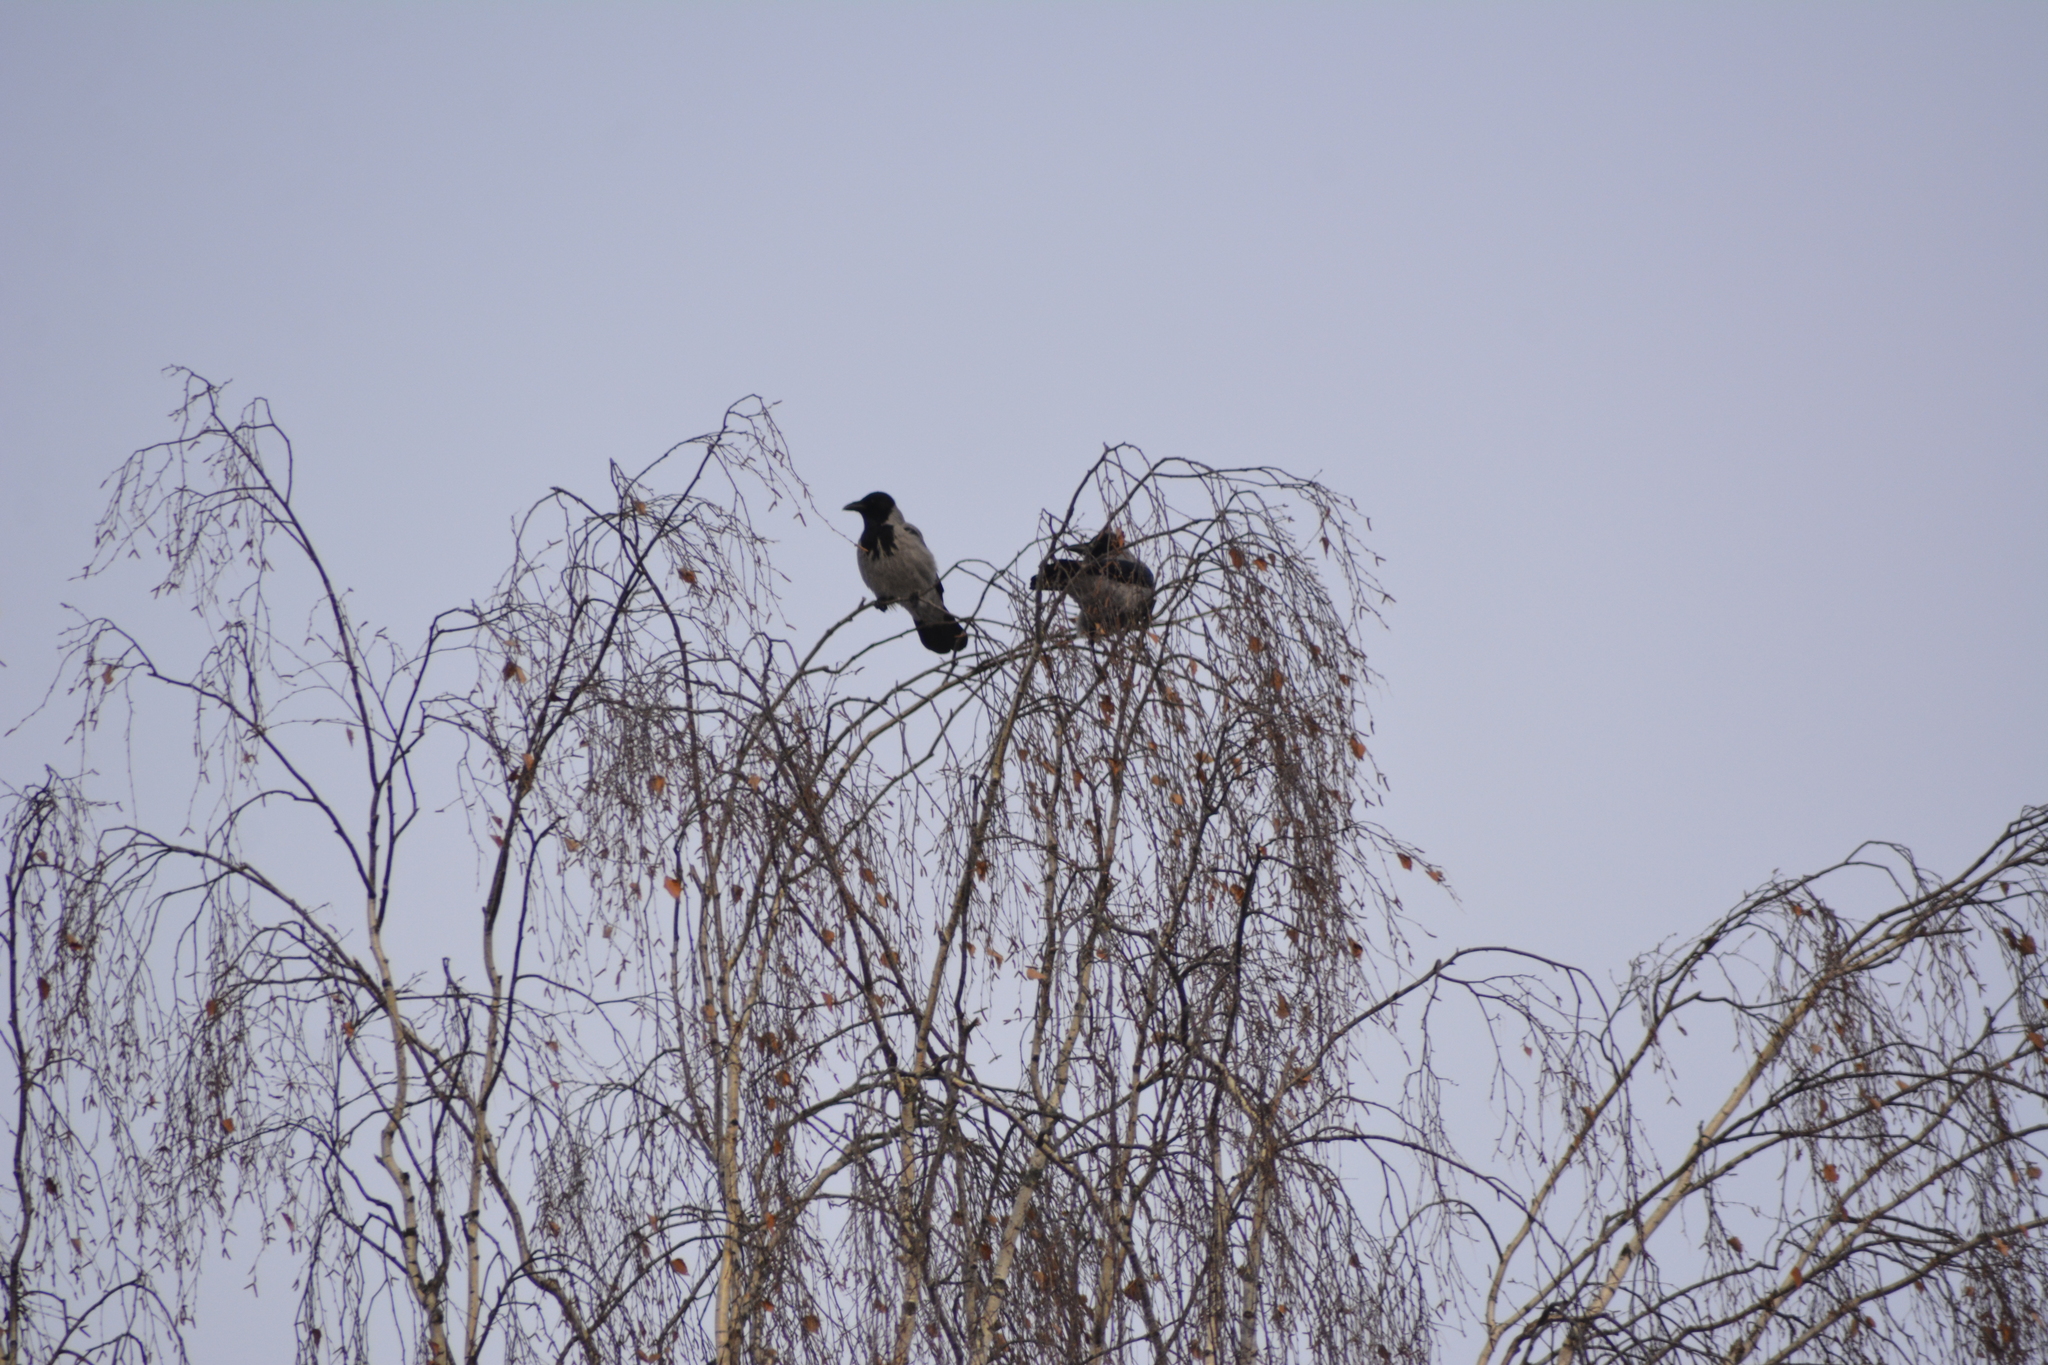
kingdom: Animalia
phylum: Chordata
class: Aves
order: Passeriformes
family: Corvidae
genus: Corvus
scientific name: Corvus cornix
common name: Hooded crow
